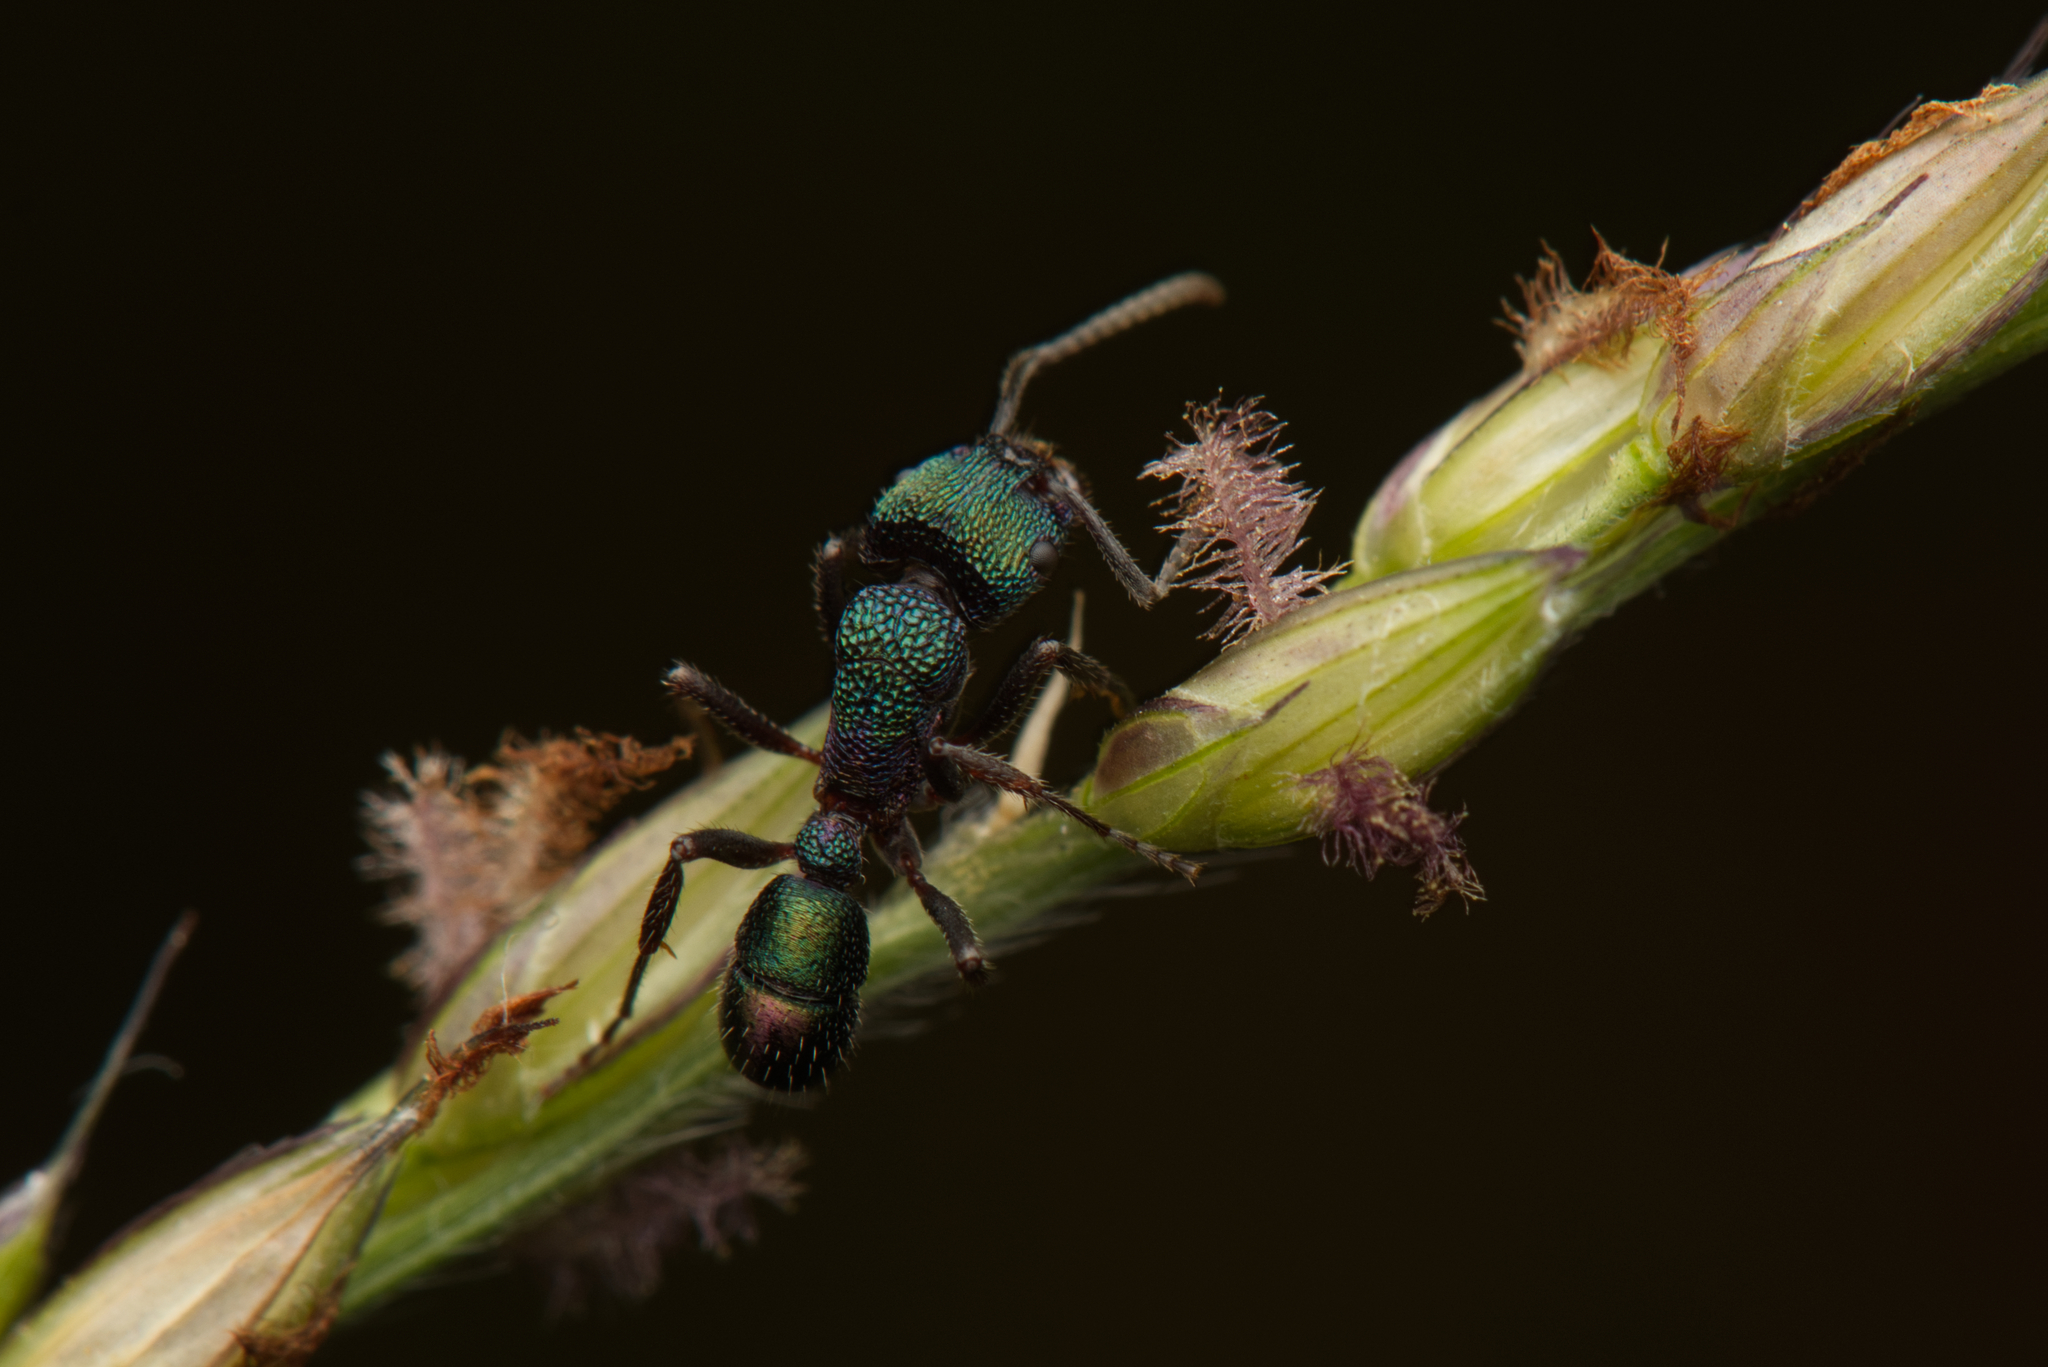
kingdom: Animalia
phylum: Arthropoda
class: Insecta
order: Hymenoptera
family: Formicidae
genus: Rhytidoponera
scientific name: Rhytidoponera metallica
